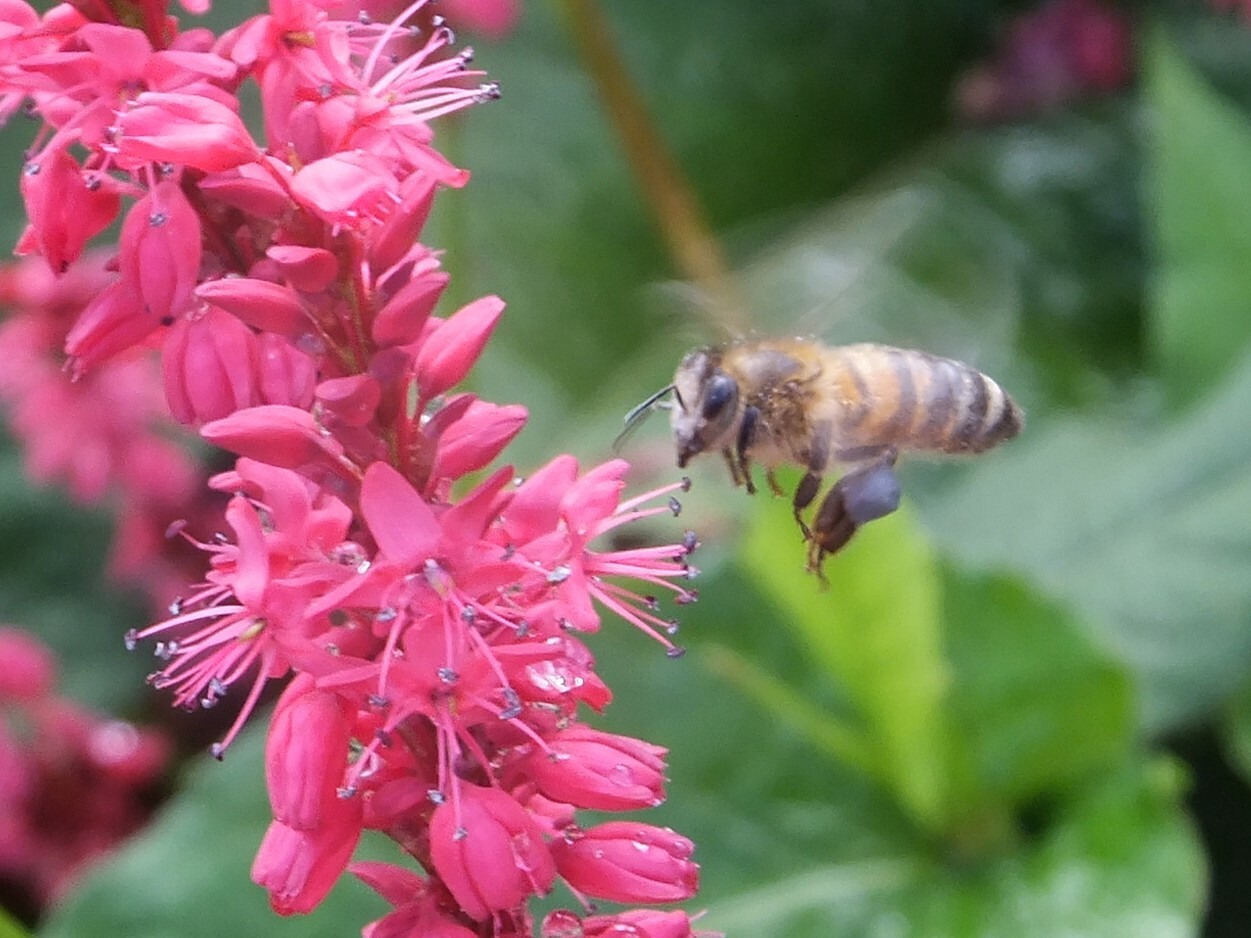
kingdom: Animalia
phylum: Arthropoda
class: Insecta
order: Hymenoptera
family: Apidae
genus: Apis
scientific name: Apis mellifera
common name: Honey bee
